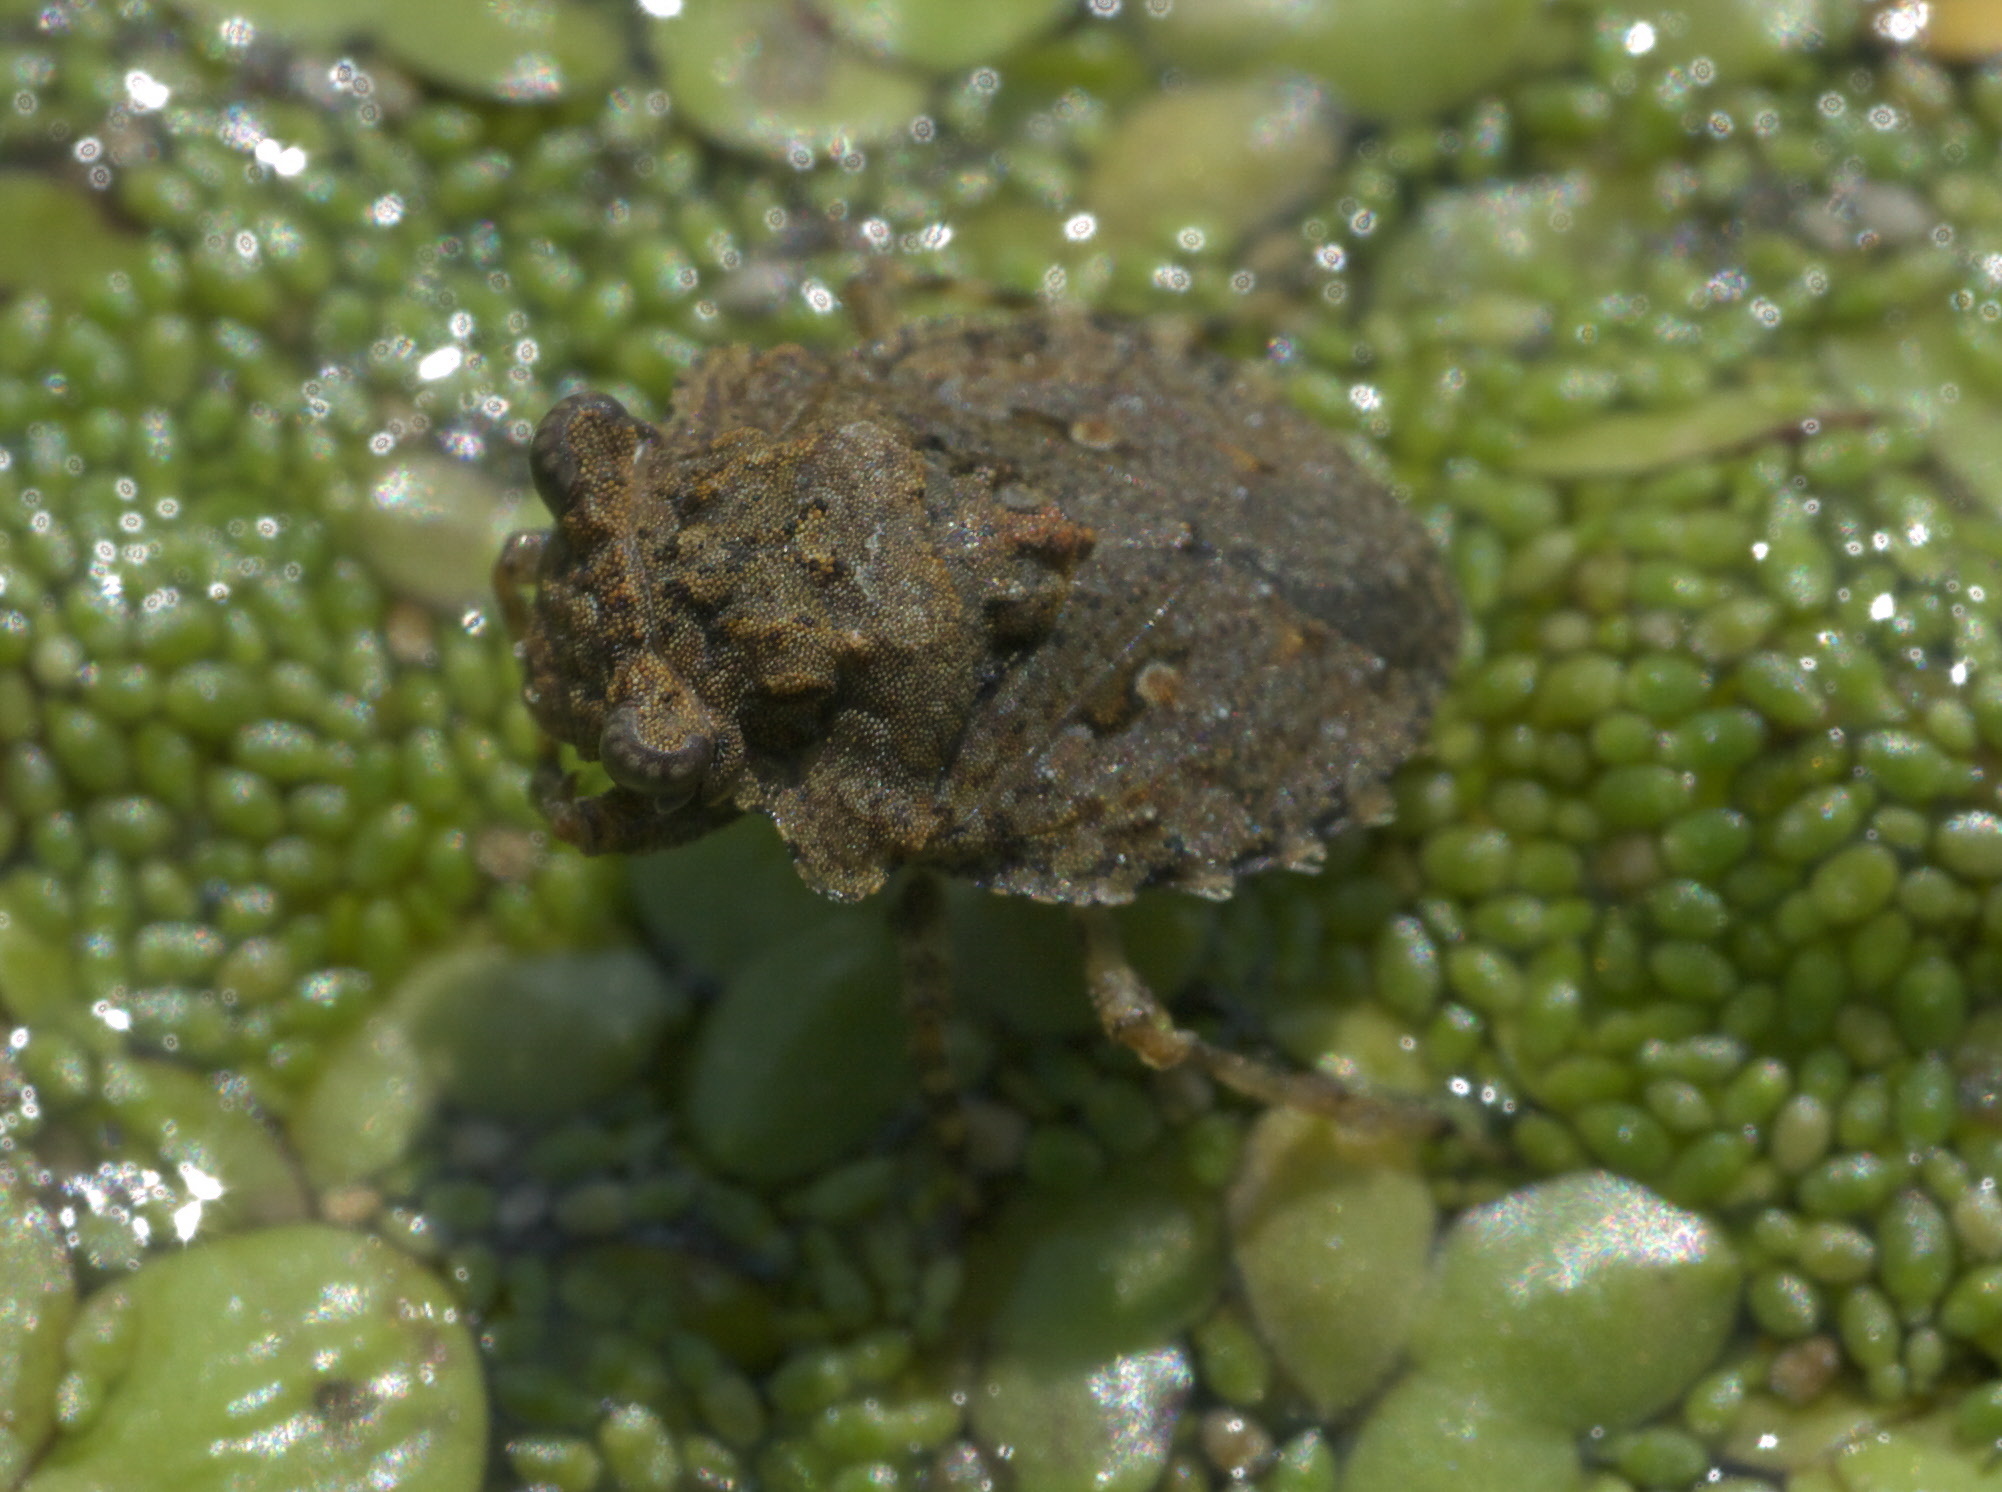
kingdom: Animalia
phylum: Arthropoda
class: Insecta
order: Hemiptera
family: Gelastocoridae
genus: Gelastocoris
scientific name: Gelastocoris oculatus
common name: Toad bug
